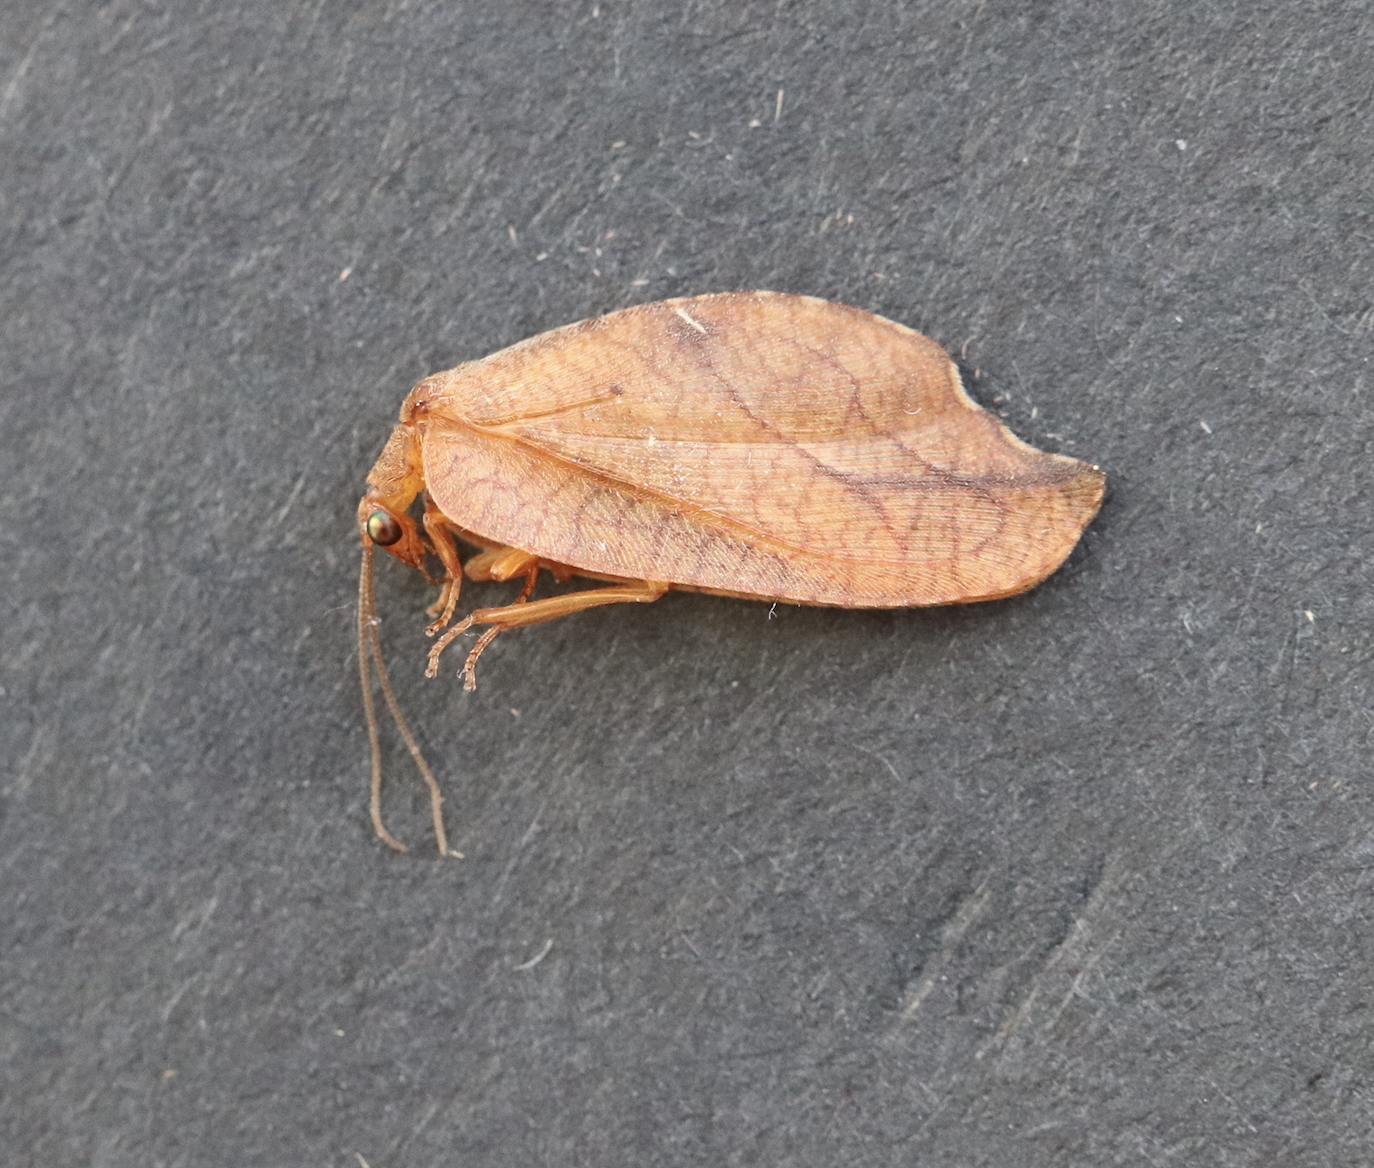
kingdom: Animalia
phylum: Arthropoda
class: Insecta
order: Neuroptera
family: Hemerobiidae
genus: Drepanepteryx
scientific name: Drepanepteryx phalaenoides
